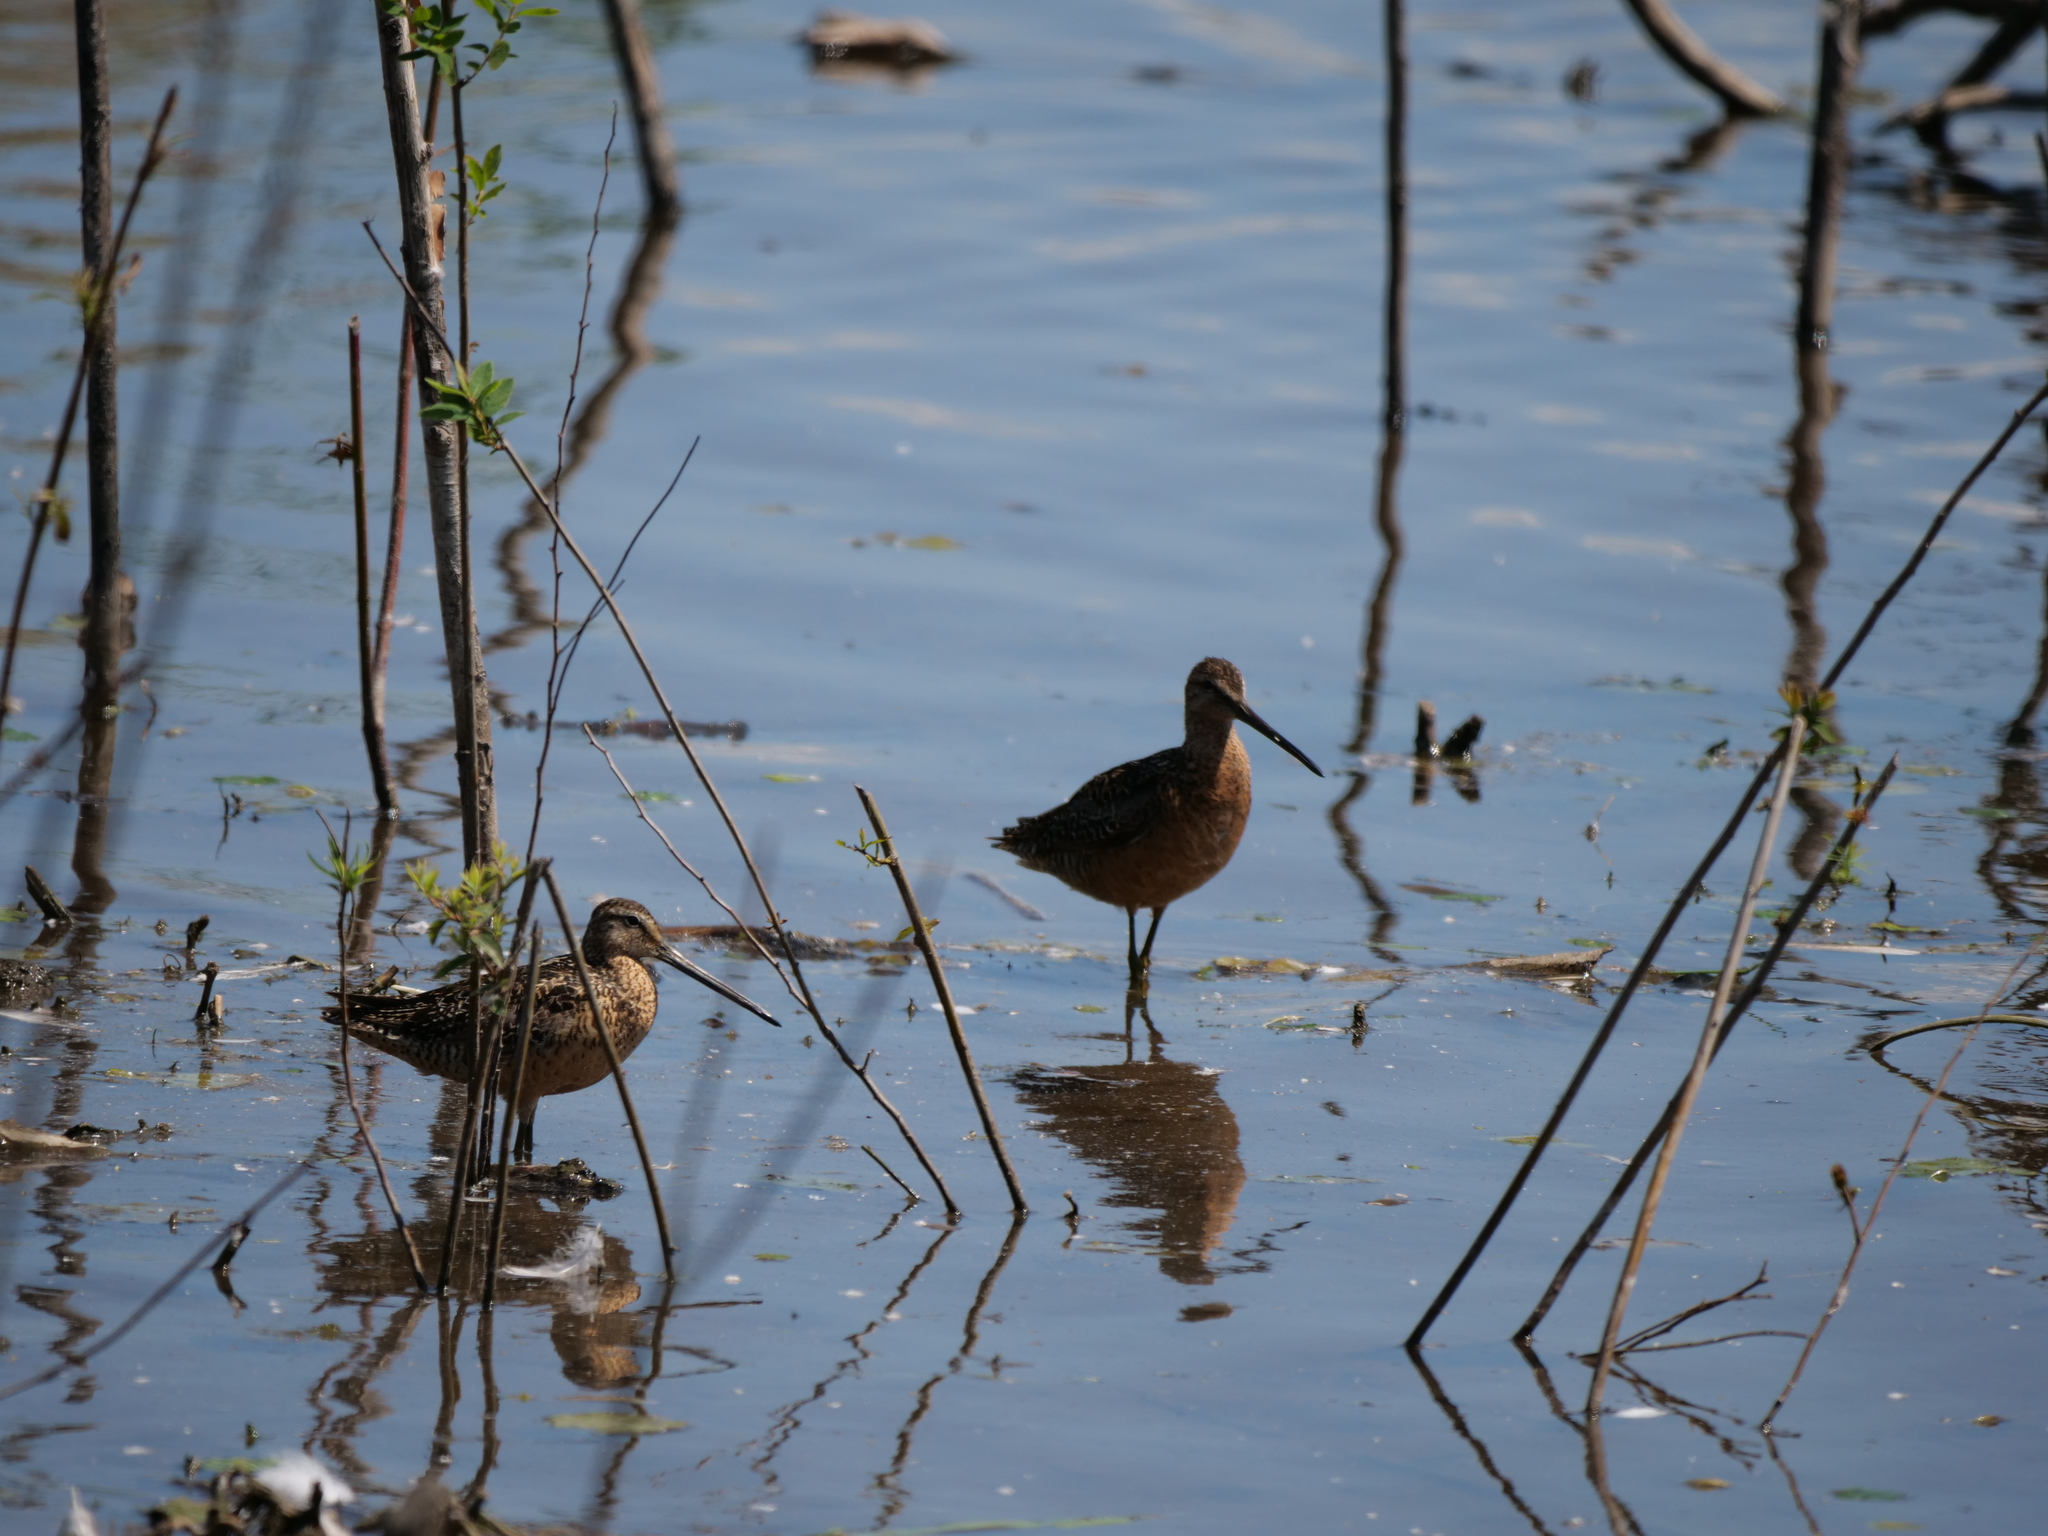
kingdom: Animalia
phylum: Chordata
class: Aves
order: Charadriiformes
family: Scolopacidae
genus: Limnodromus
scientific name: Limnodromus scolopaceus
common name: Long-billed dowitcher
